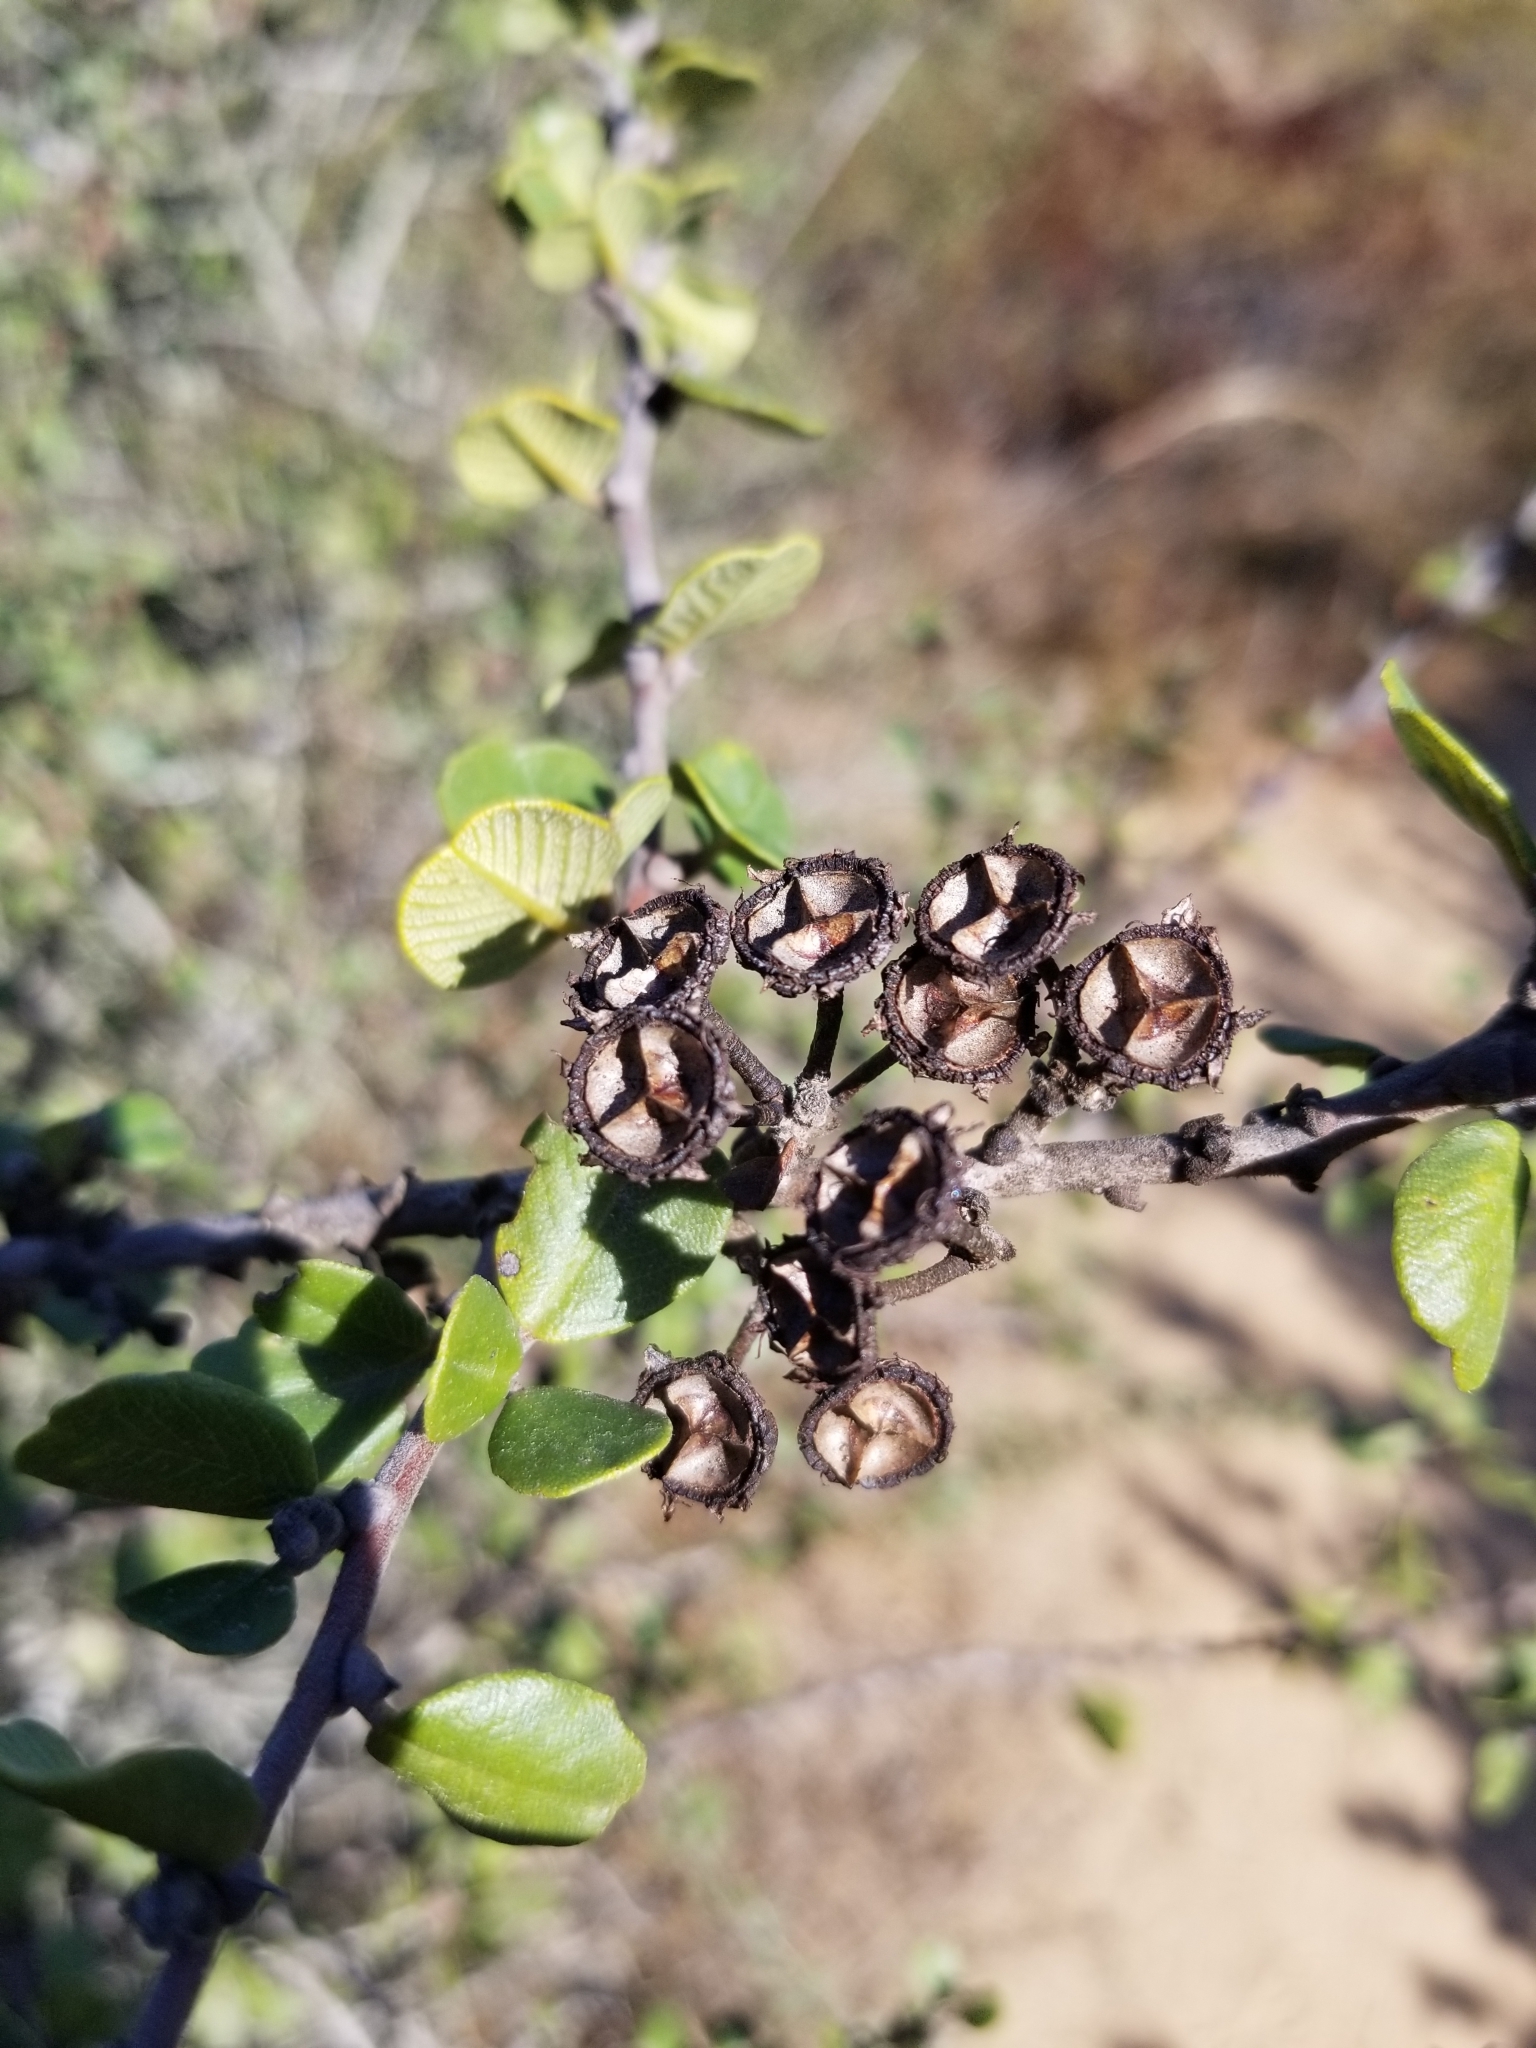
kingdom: Plantae
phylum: Tracheophyta
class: Magnoliopsida
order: Rosales
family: Rhamnaceae
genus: Ceanothus
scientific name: Ceanothus verrucosus
